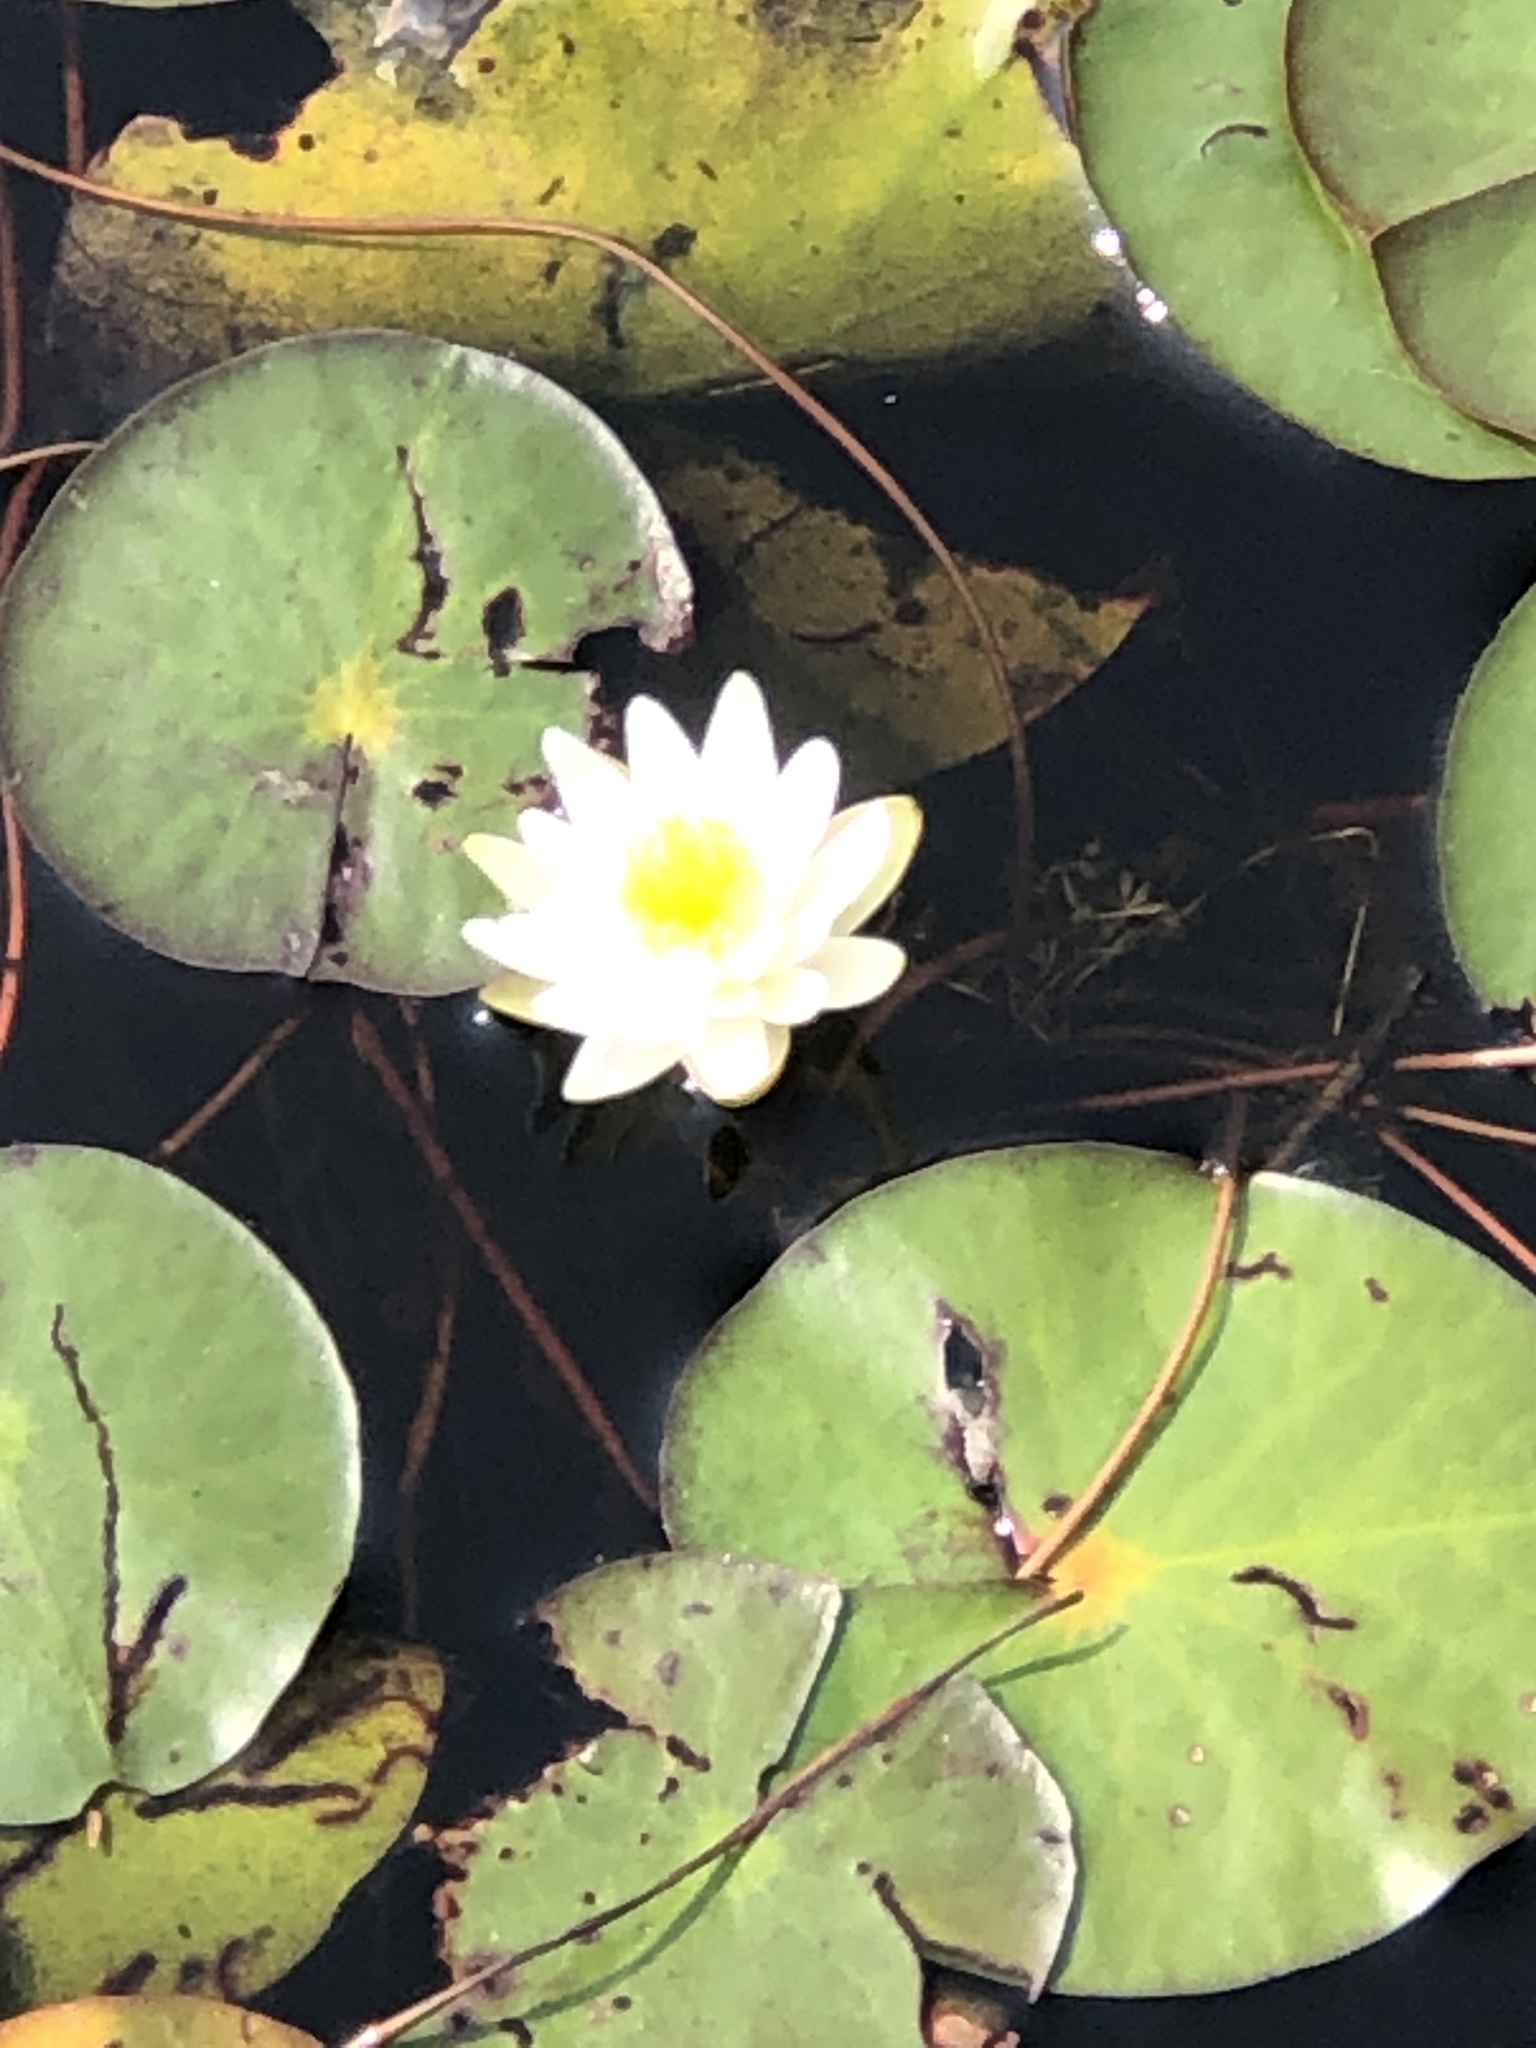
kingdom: Plantae
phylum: Tracheophyta
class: Magnoliopsida
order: Nymphaeales
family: Nymphaeaceae
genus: Nymphaea
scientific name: Nymphaea odorata
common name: Fragrant water-lily
